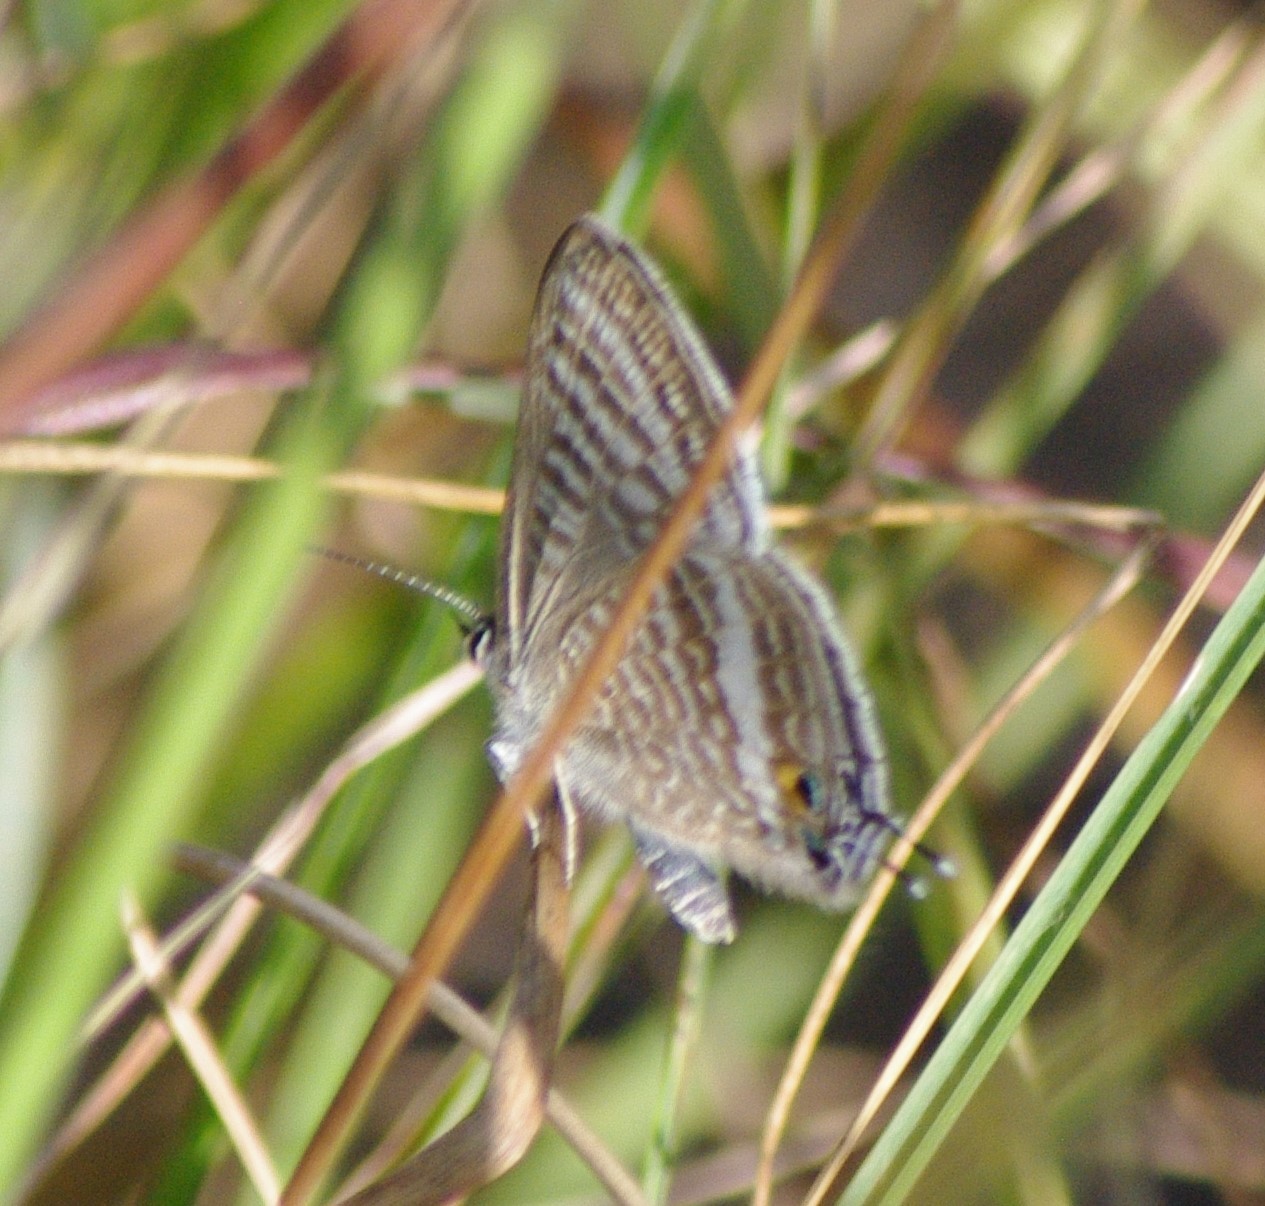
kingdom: Animalia
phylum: Arthropoda
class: Insecta
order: Lepidoptera
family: Lycaenidae
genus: Lampides
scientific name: Lampides boeticus
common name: Long-tailed blue
